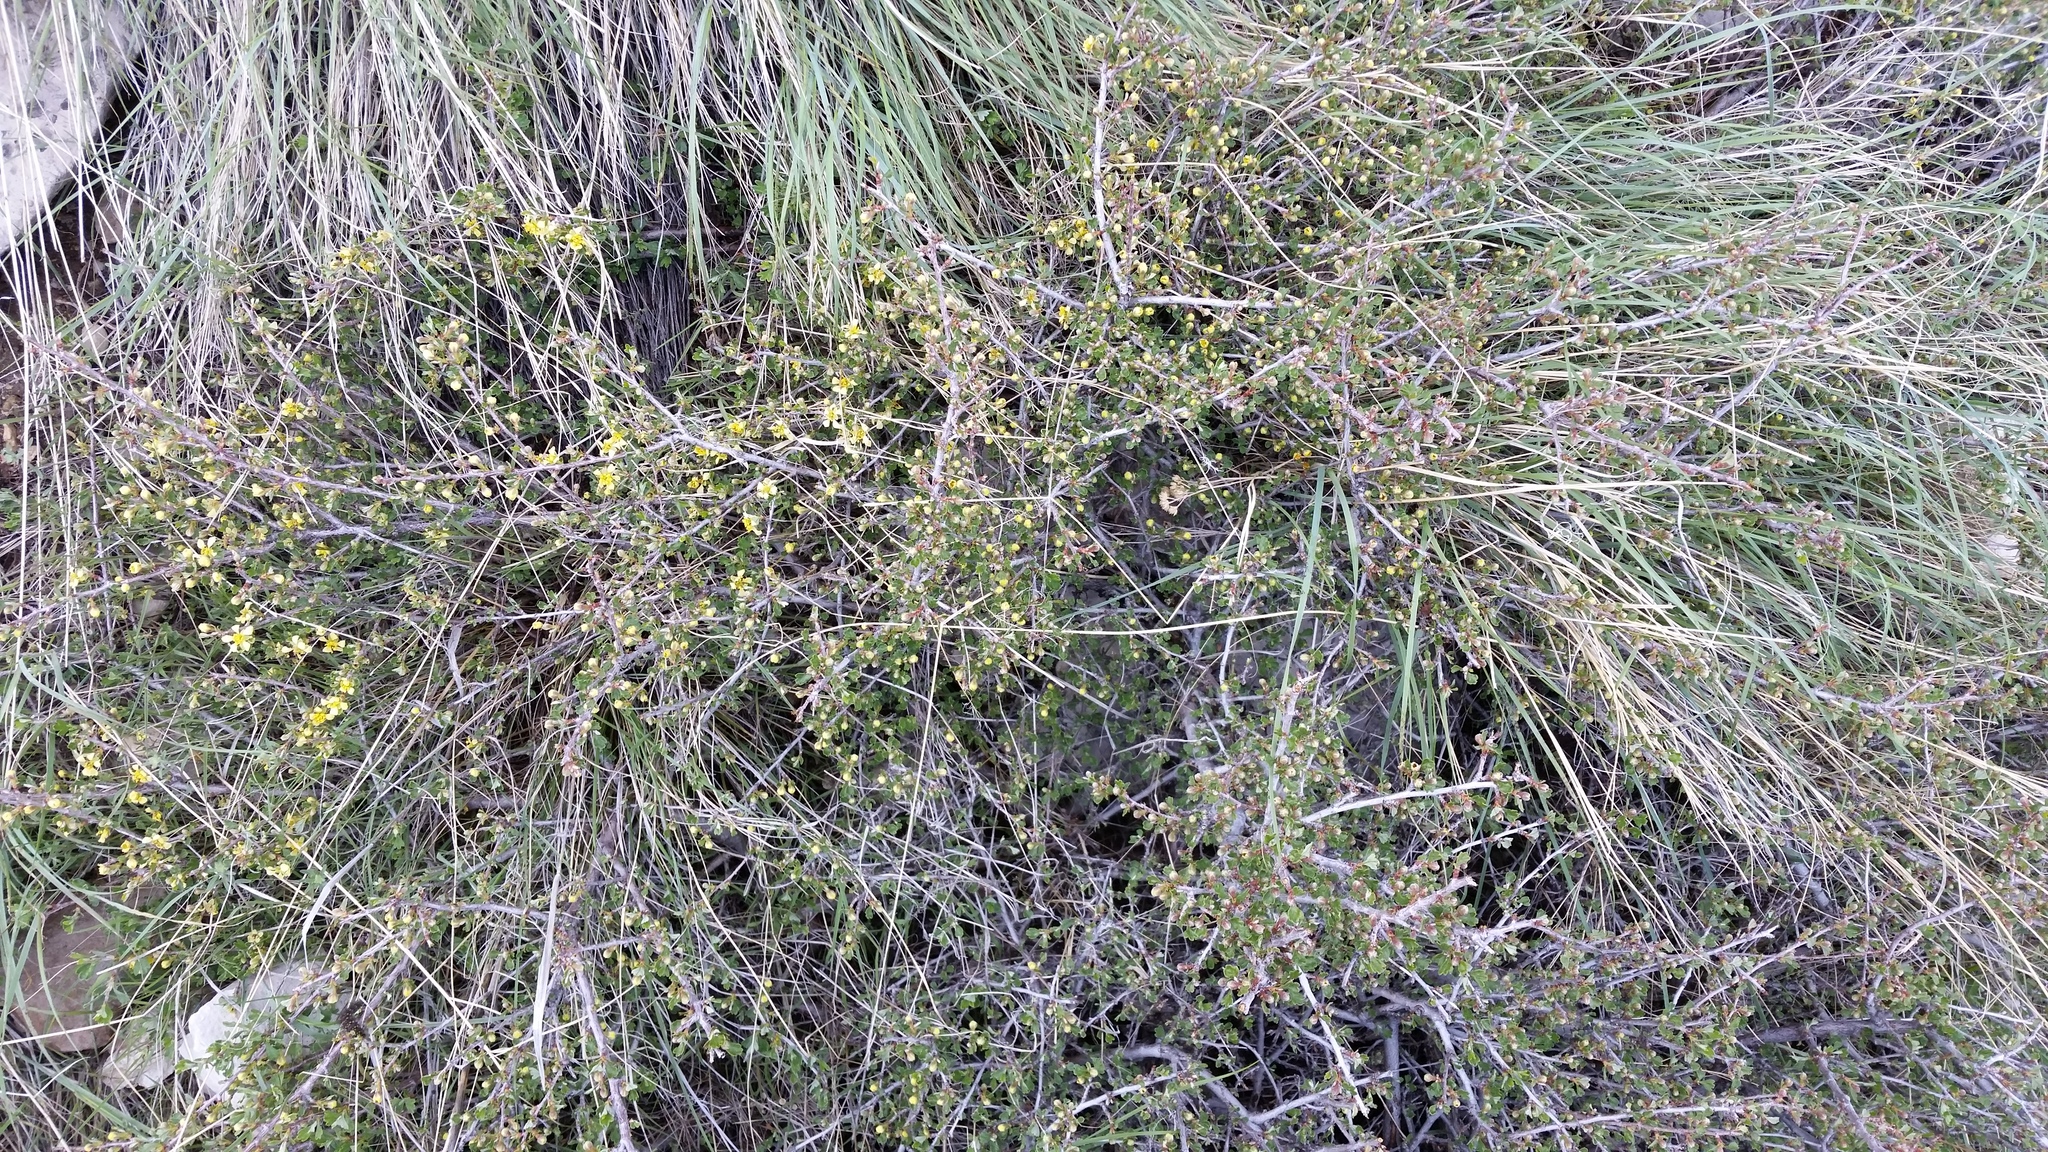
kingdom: Plantae
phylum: Tracheophyta
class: Magnoliopsida
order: Rosales
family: Rosaceae
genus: Purshia
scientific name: Purshia tridentata
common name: Antelope bitterbrush
